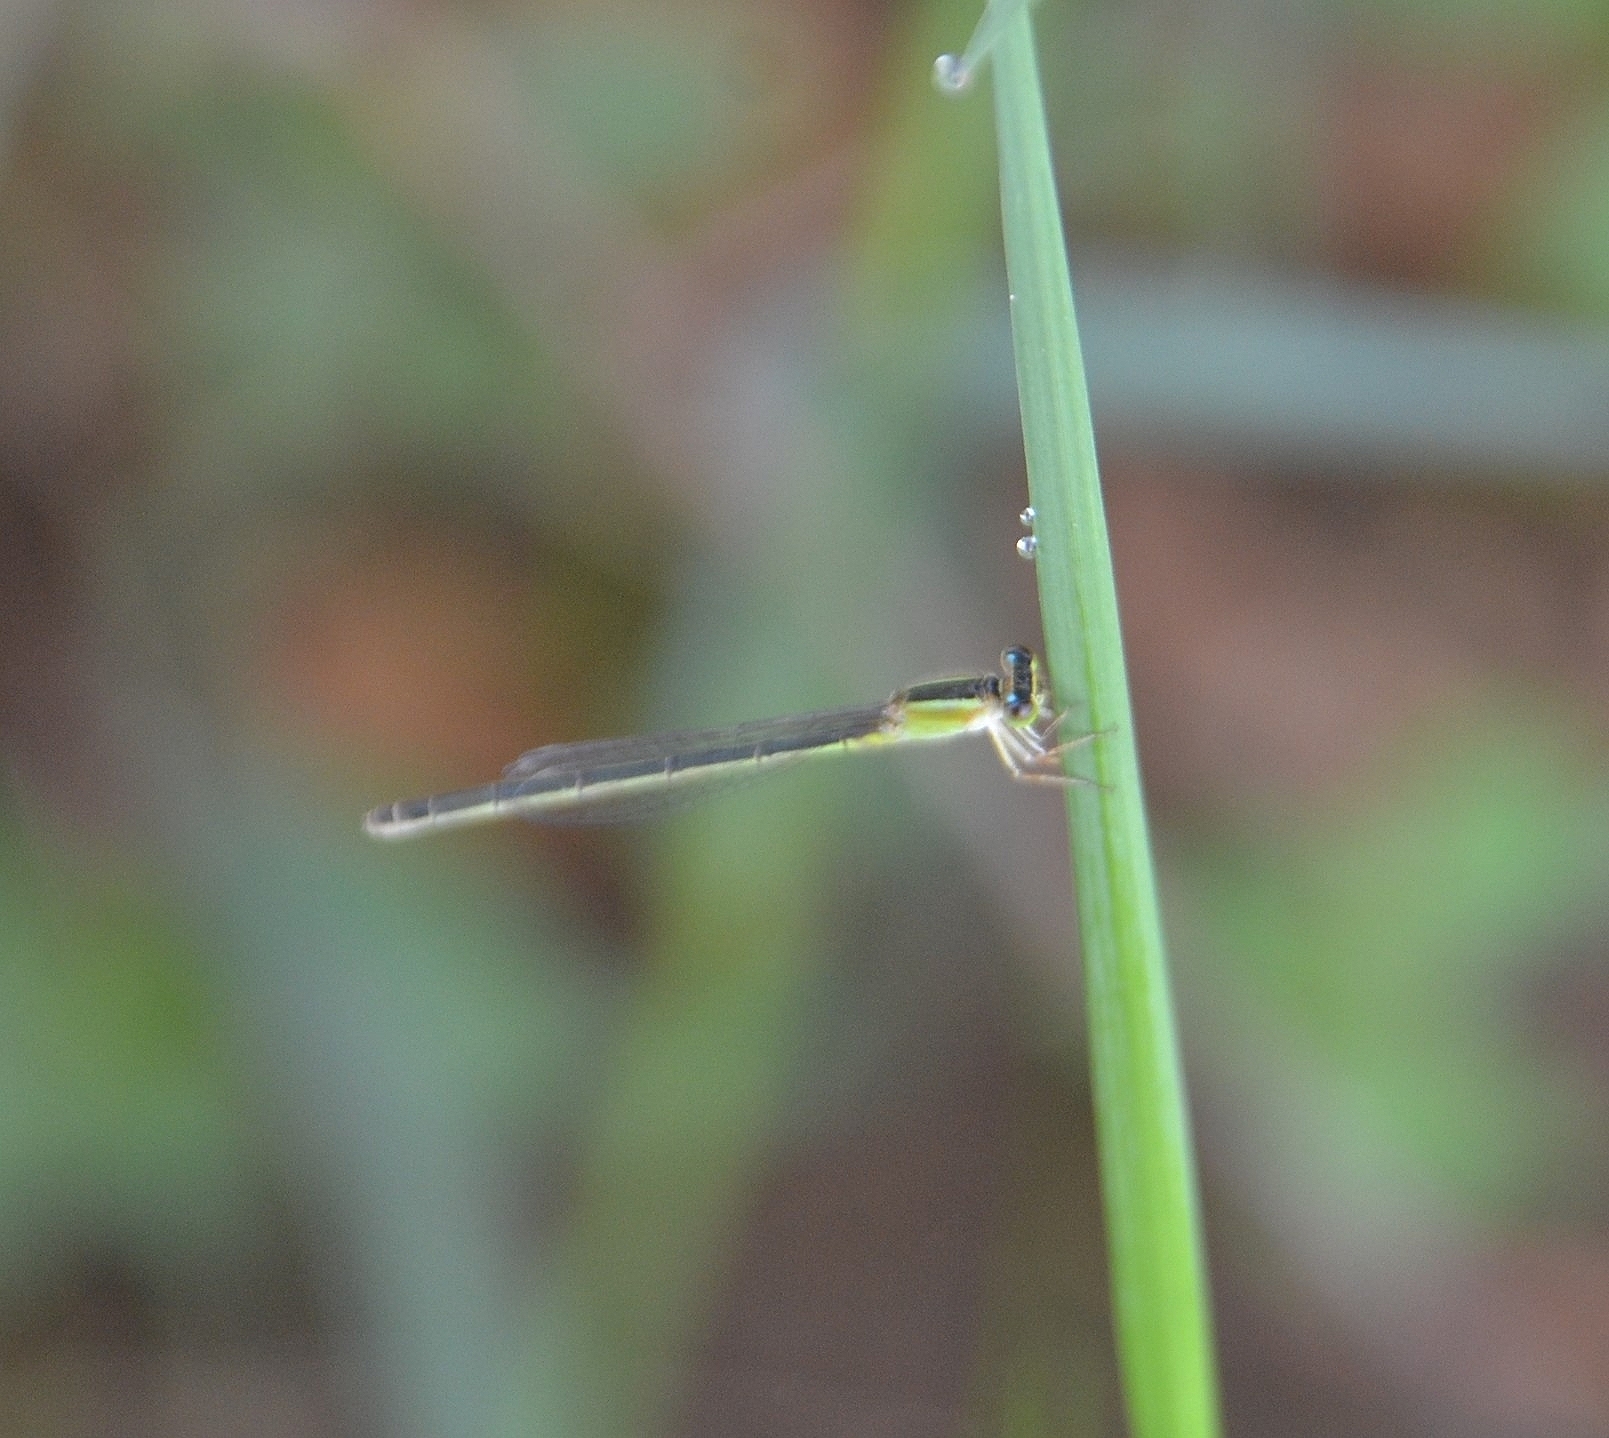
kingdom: Animalia
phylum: Arthropoda
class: Insecta
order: Odonata
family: Coenagrionidae
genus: Ischnura
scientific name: Ischnura senegalensis
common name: Tropical bluetail
